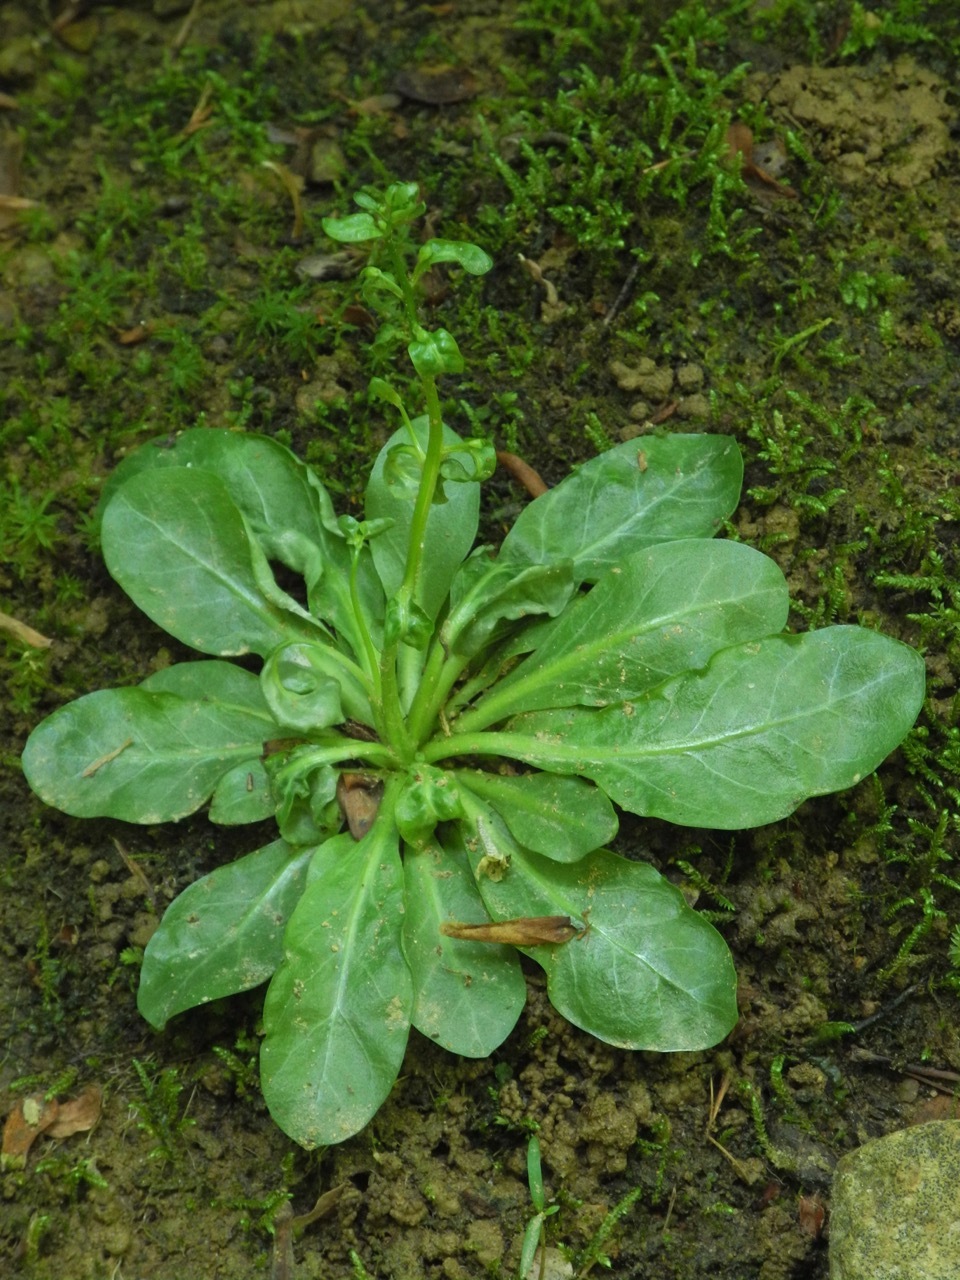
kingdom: Plantae
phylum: Tracheophyta
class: Magnoliopsida
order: Ericales
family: Primulaceae
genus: Samolus
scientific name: Samolus parviflorus
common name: False water pimpernel
